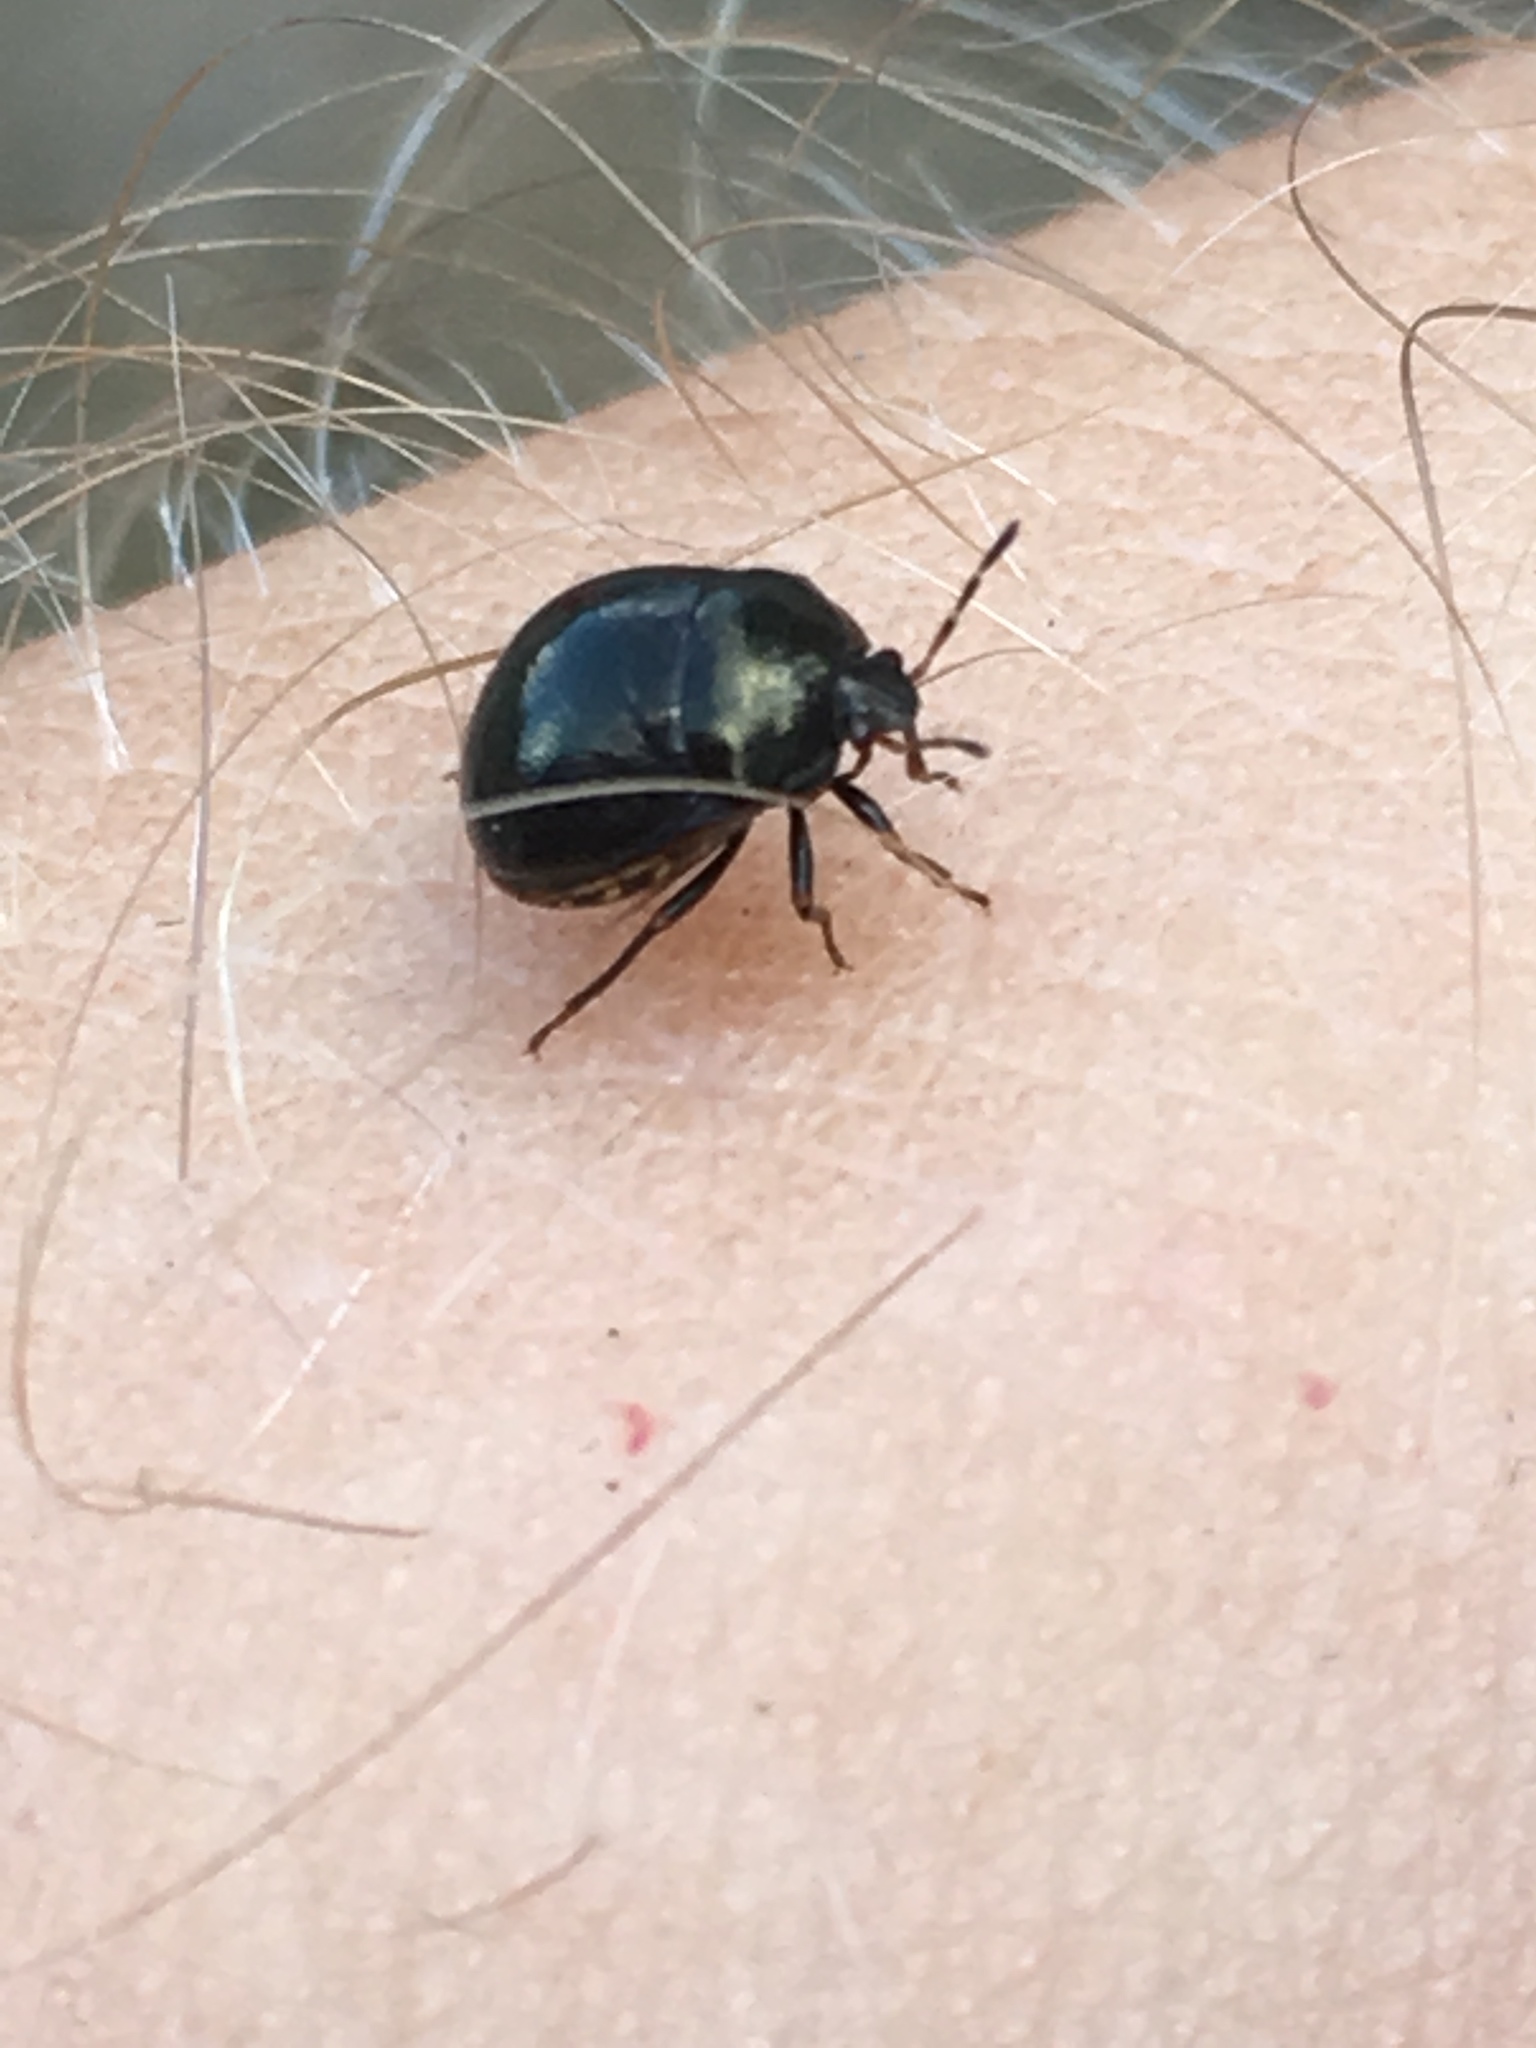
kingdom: Animalia
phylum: Arthropoda
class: Insecta
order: Hemiptera
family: Plataspidae
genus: Coptosoma
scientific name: Coptosoma scutellatum
